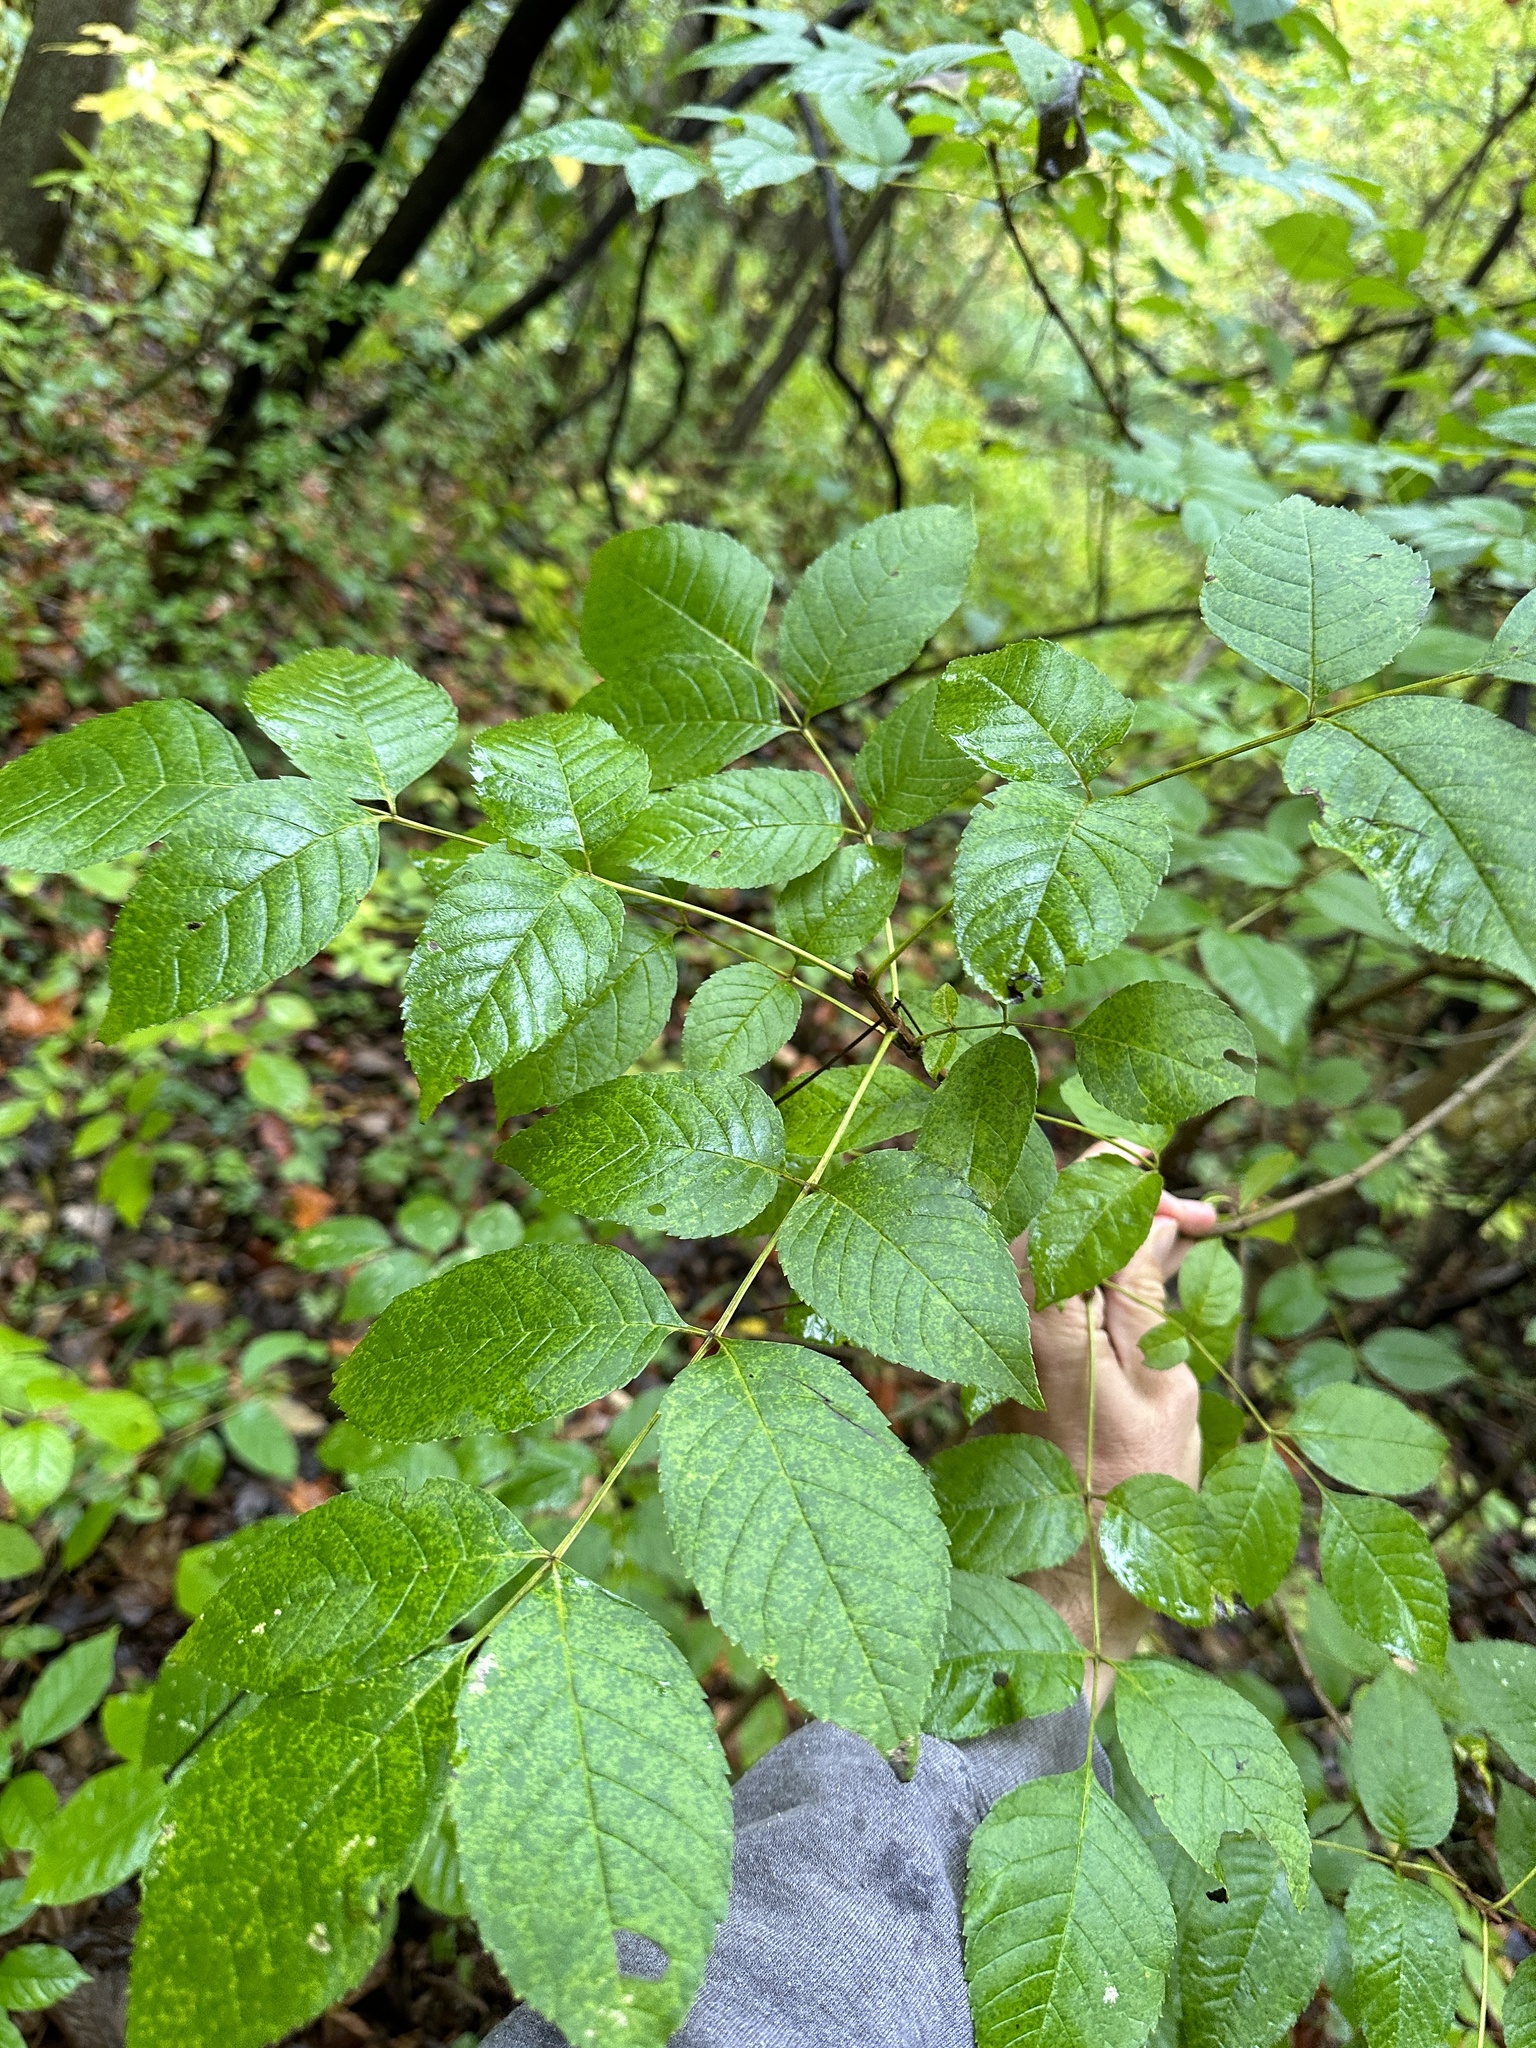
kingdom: Plantae
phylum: Tracheophyta
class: Magnoliopsida
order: Lamiales
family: Oleaceae
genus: Fraxinus
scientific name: Fraxinus quadrangulata
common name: Blue ash
